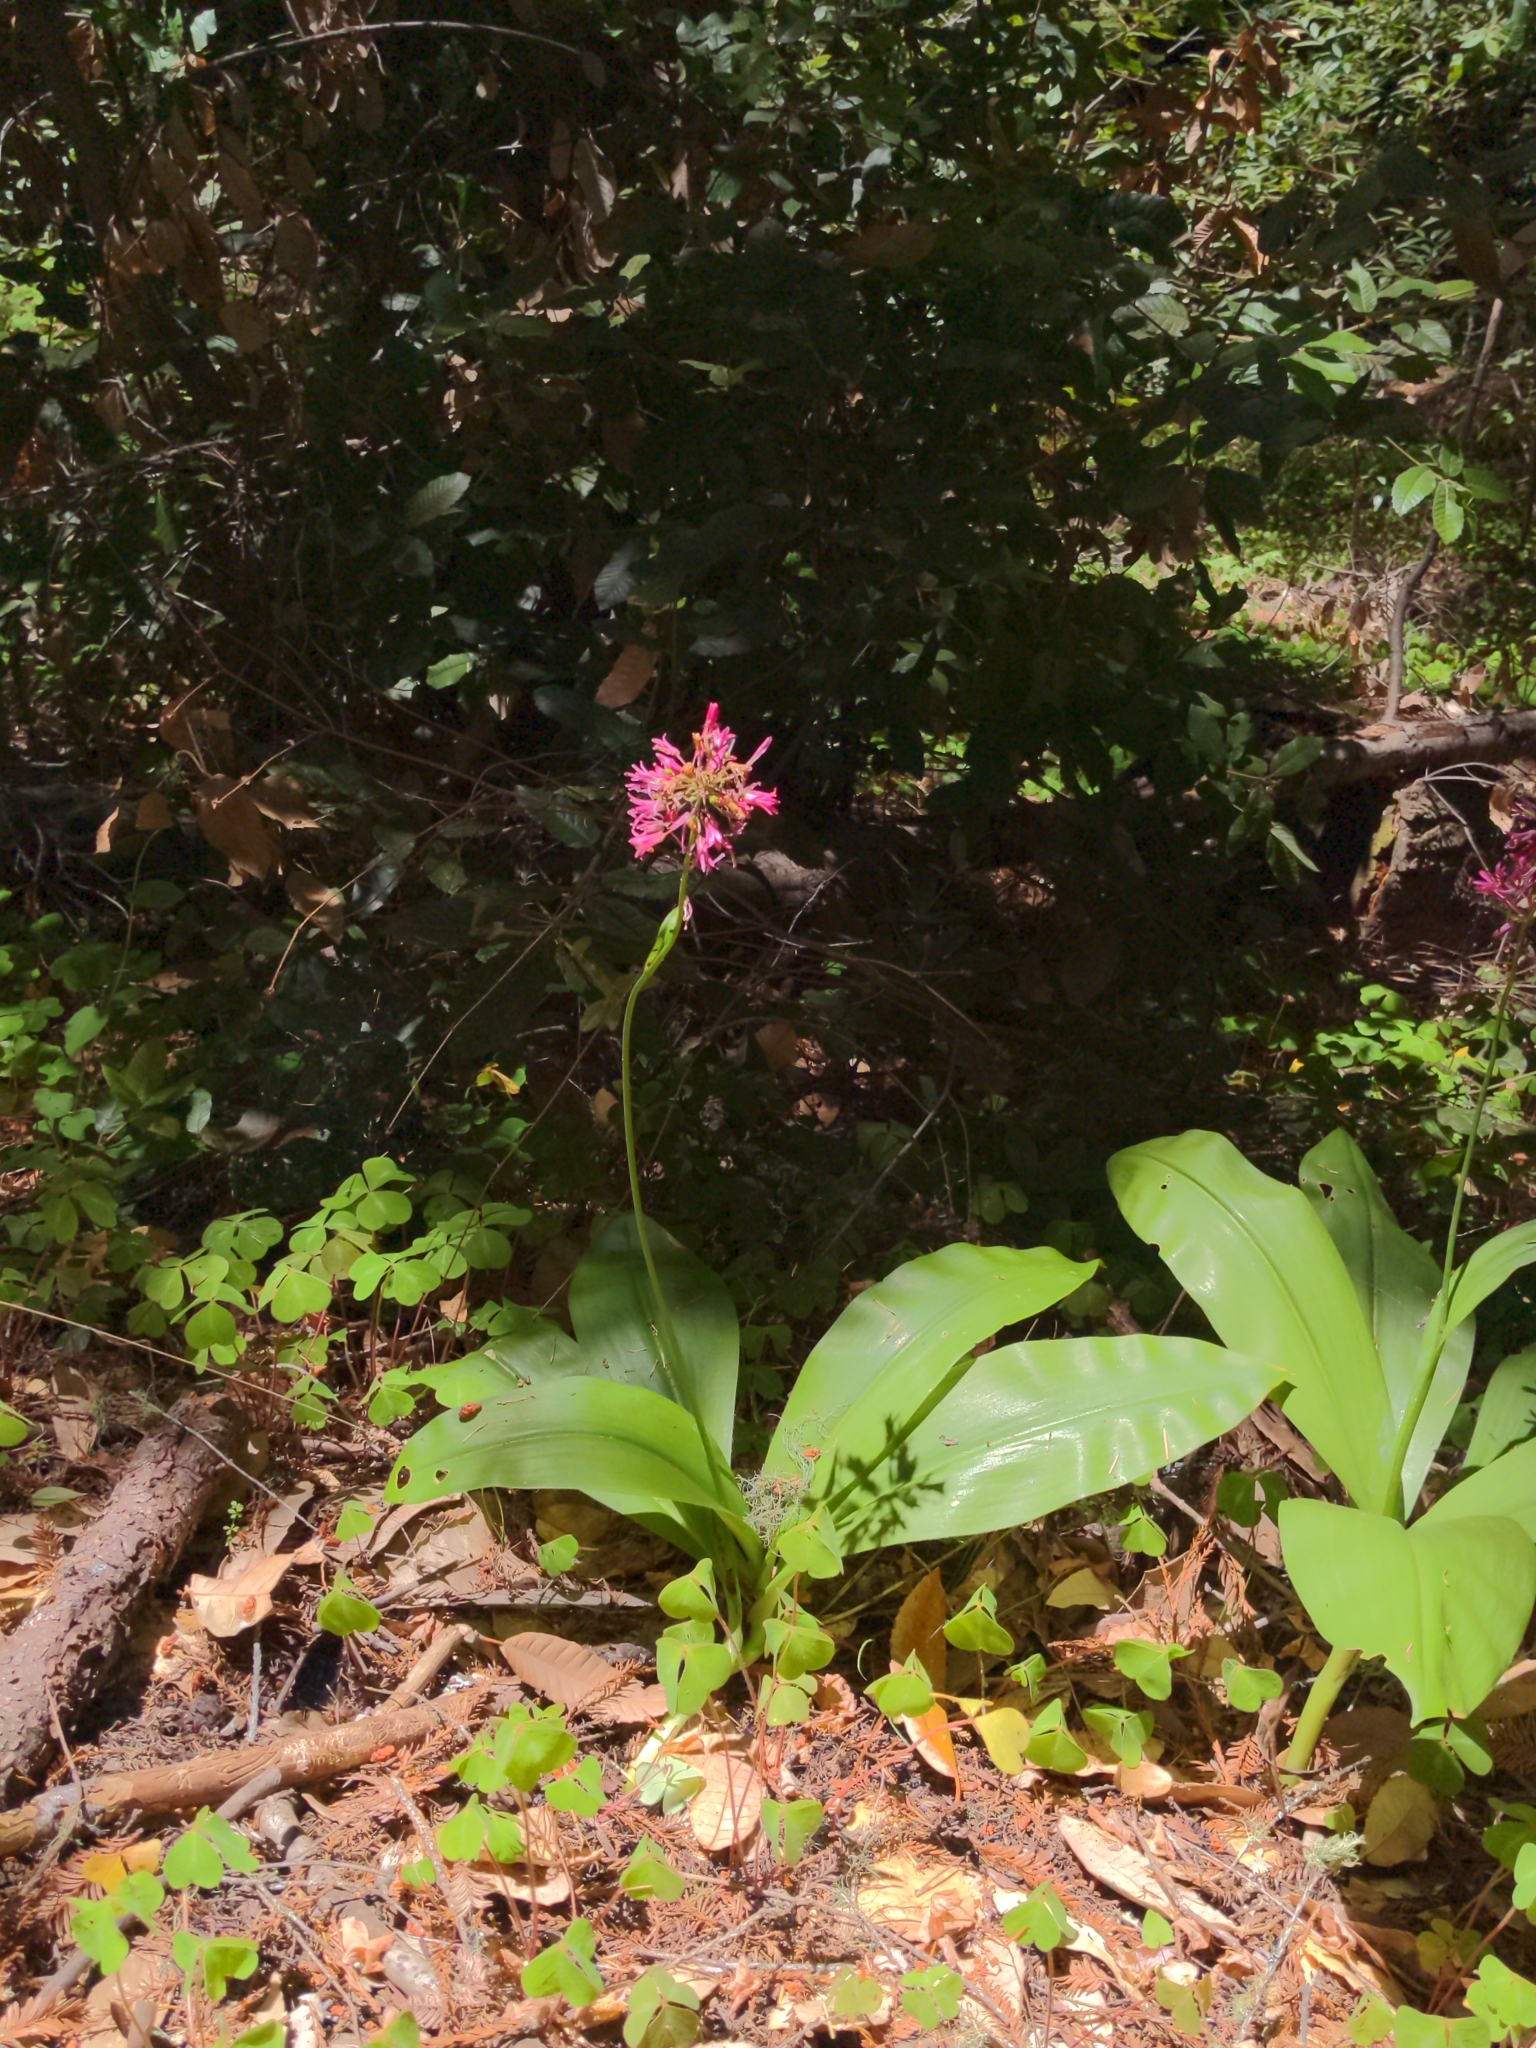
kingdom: Plantae
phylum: Tracheophyta
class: Liliopsida
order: Liliales
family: Liliaceae
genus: Clintonia
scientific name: Clintonia andrewsiana
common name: Red clintonia
